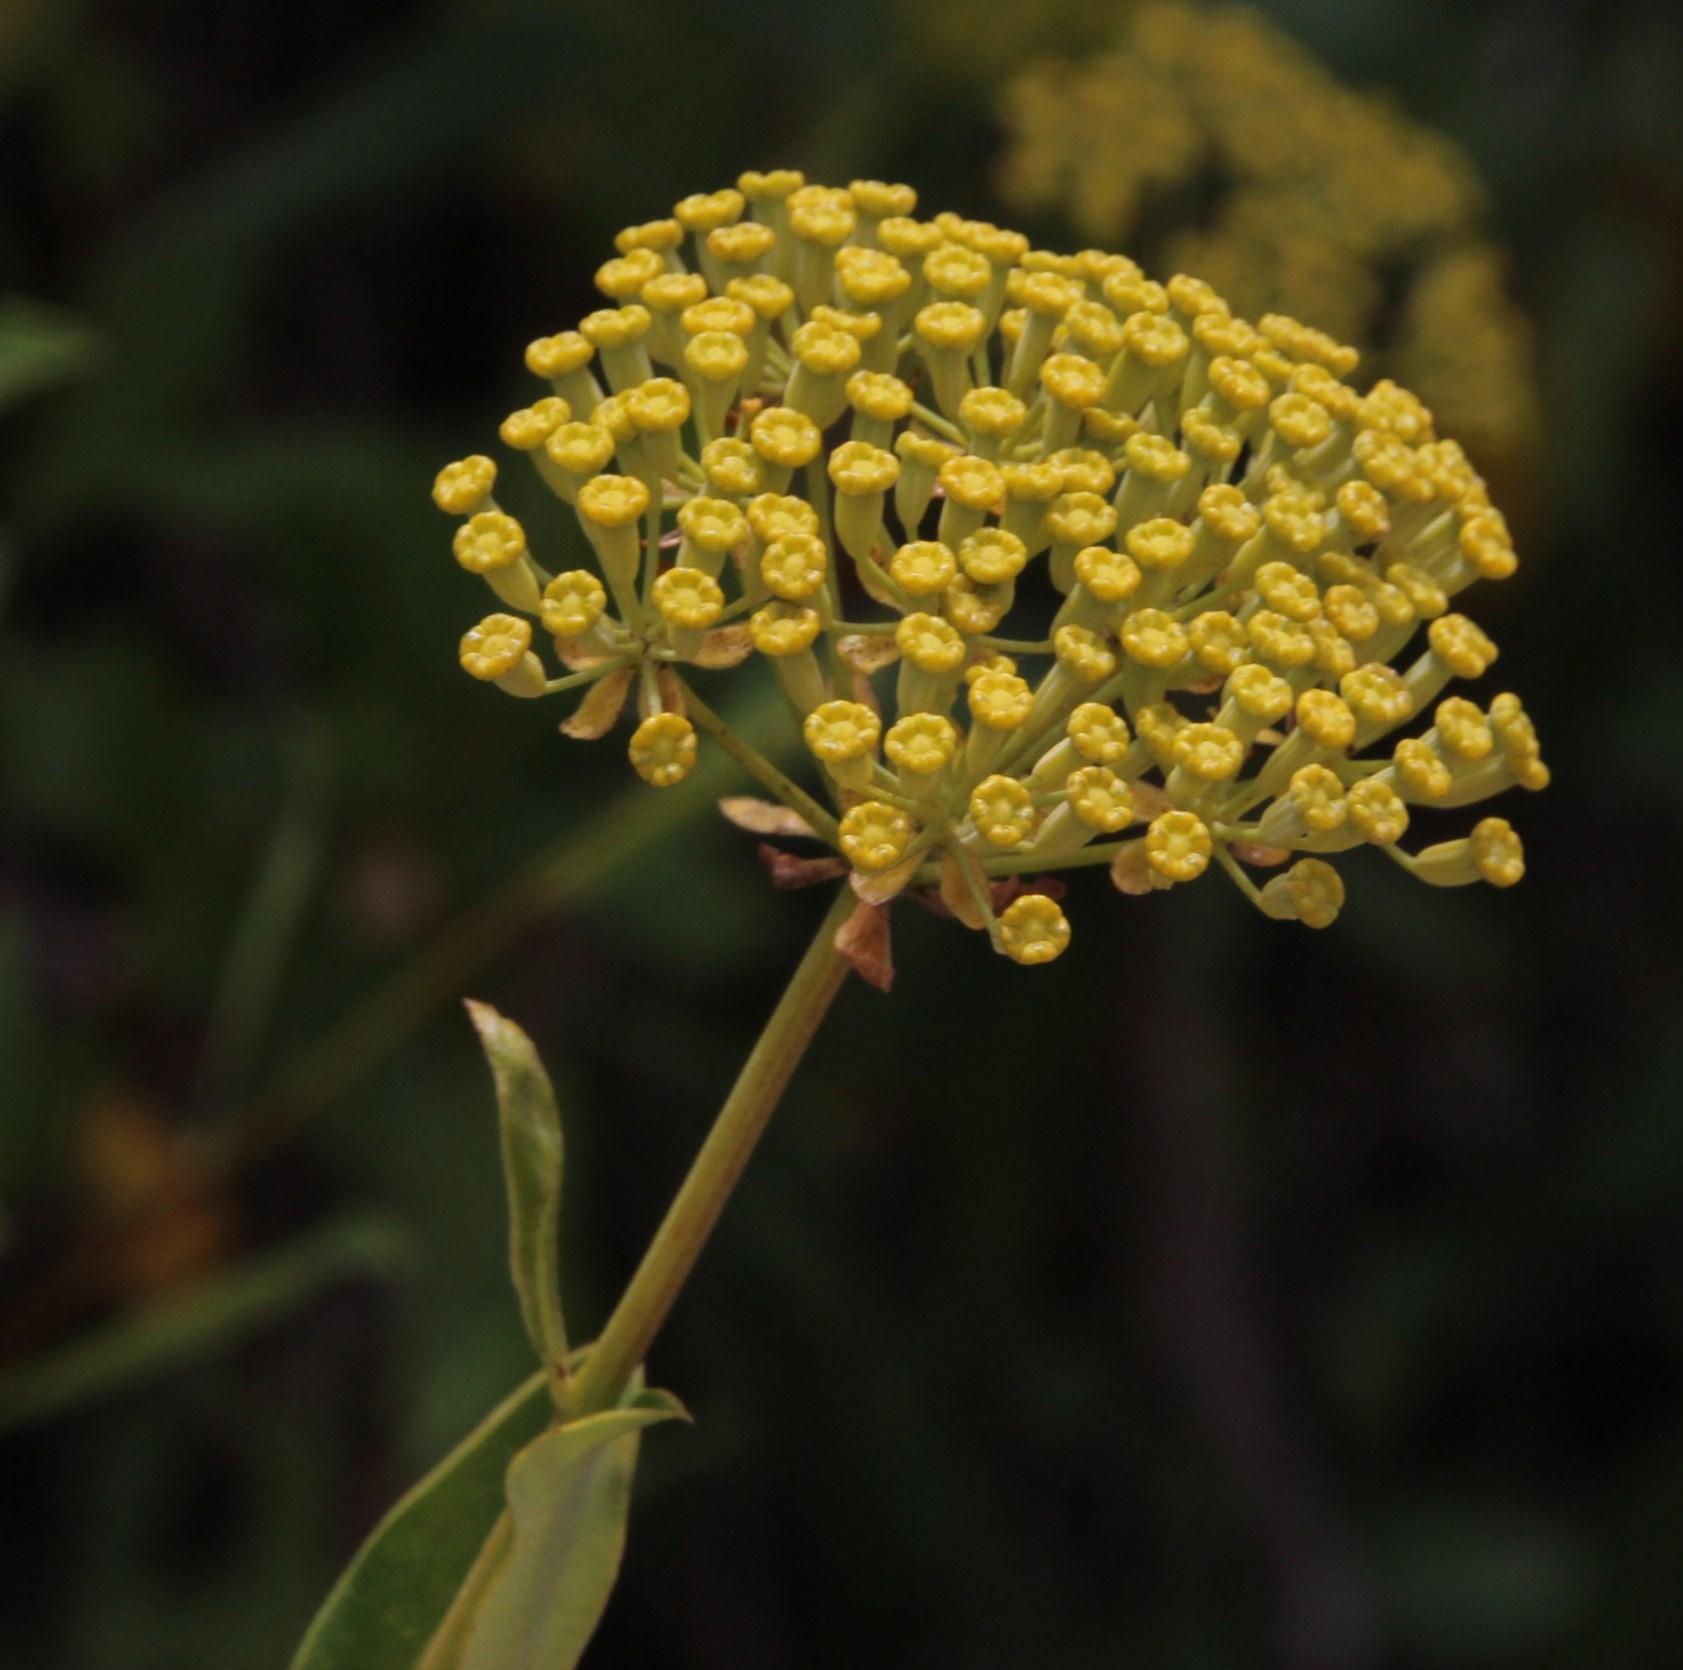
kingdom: Plantae
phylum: Tracheophyta
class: Magnoliopsida
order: Apiales
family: Apiaceae
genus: Bupleurum
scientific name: Bupleurum fruticosum
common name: Shrubby hare's-ear
